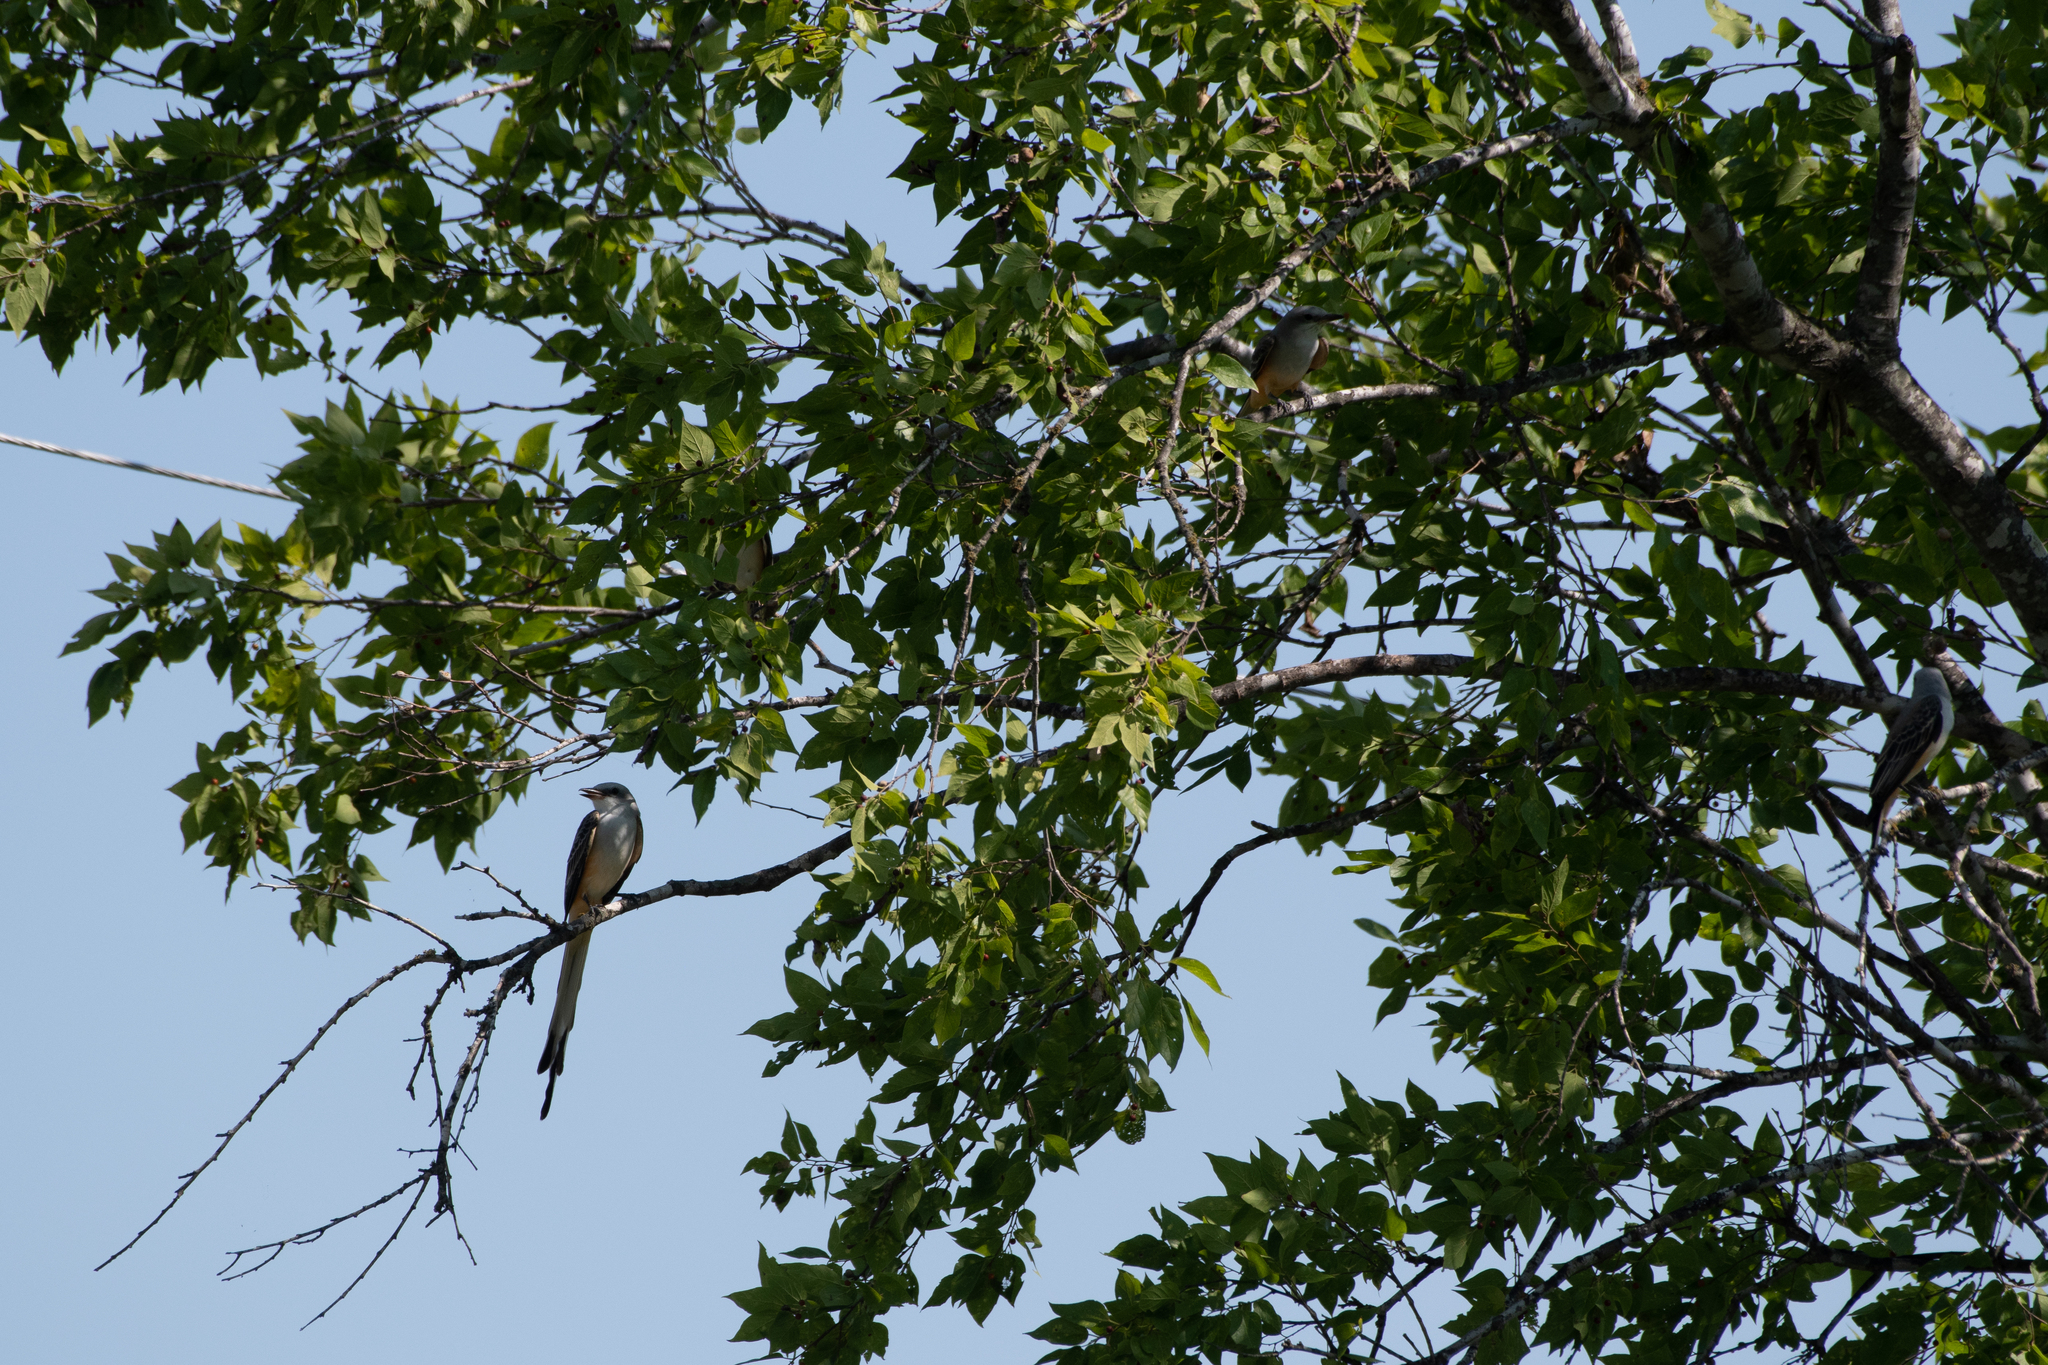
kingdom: Animalia
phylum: Chordata
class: Aves
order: Passeriformes
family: Tyrannidae
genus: Tyrannus
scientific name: Tyrannus forficatus
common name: Scissor-tailed flycatcher
